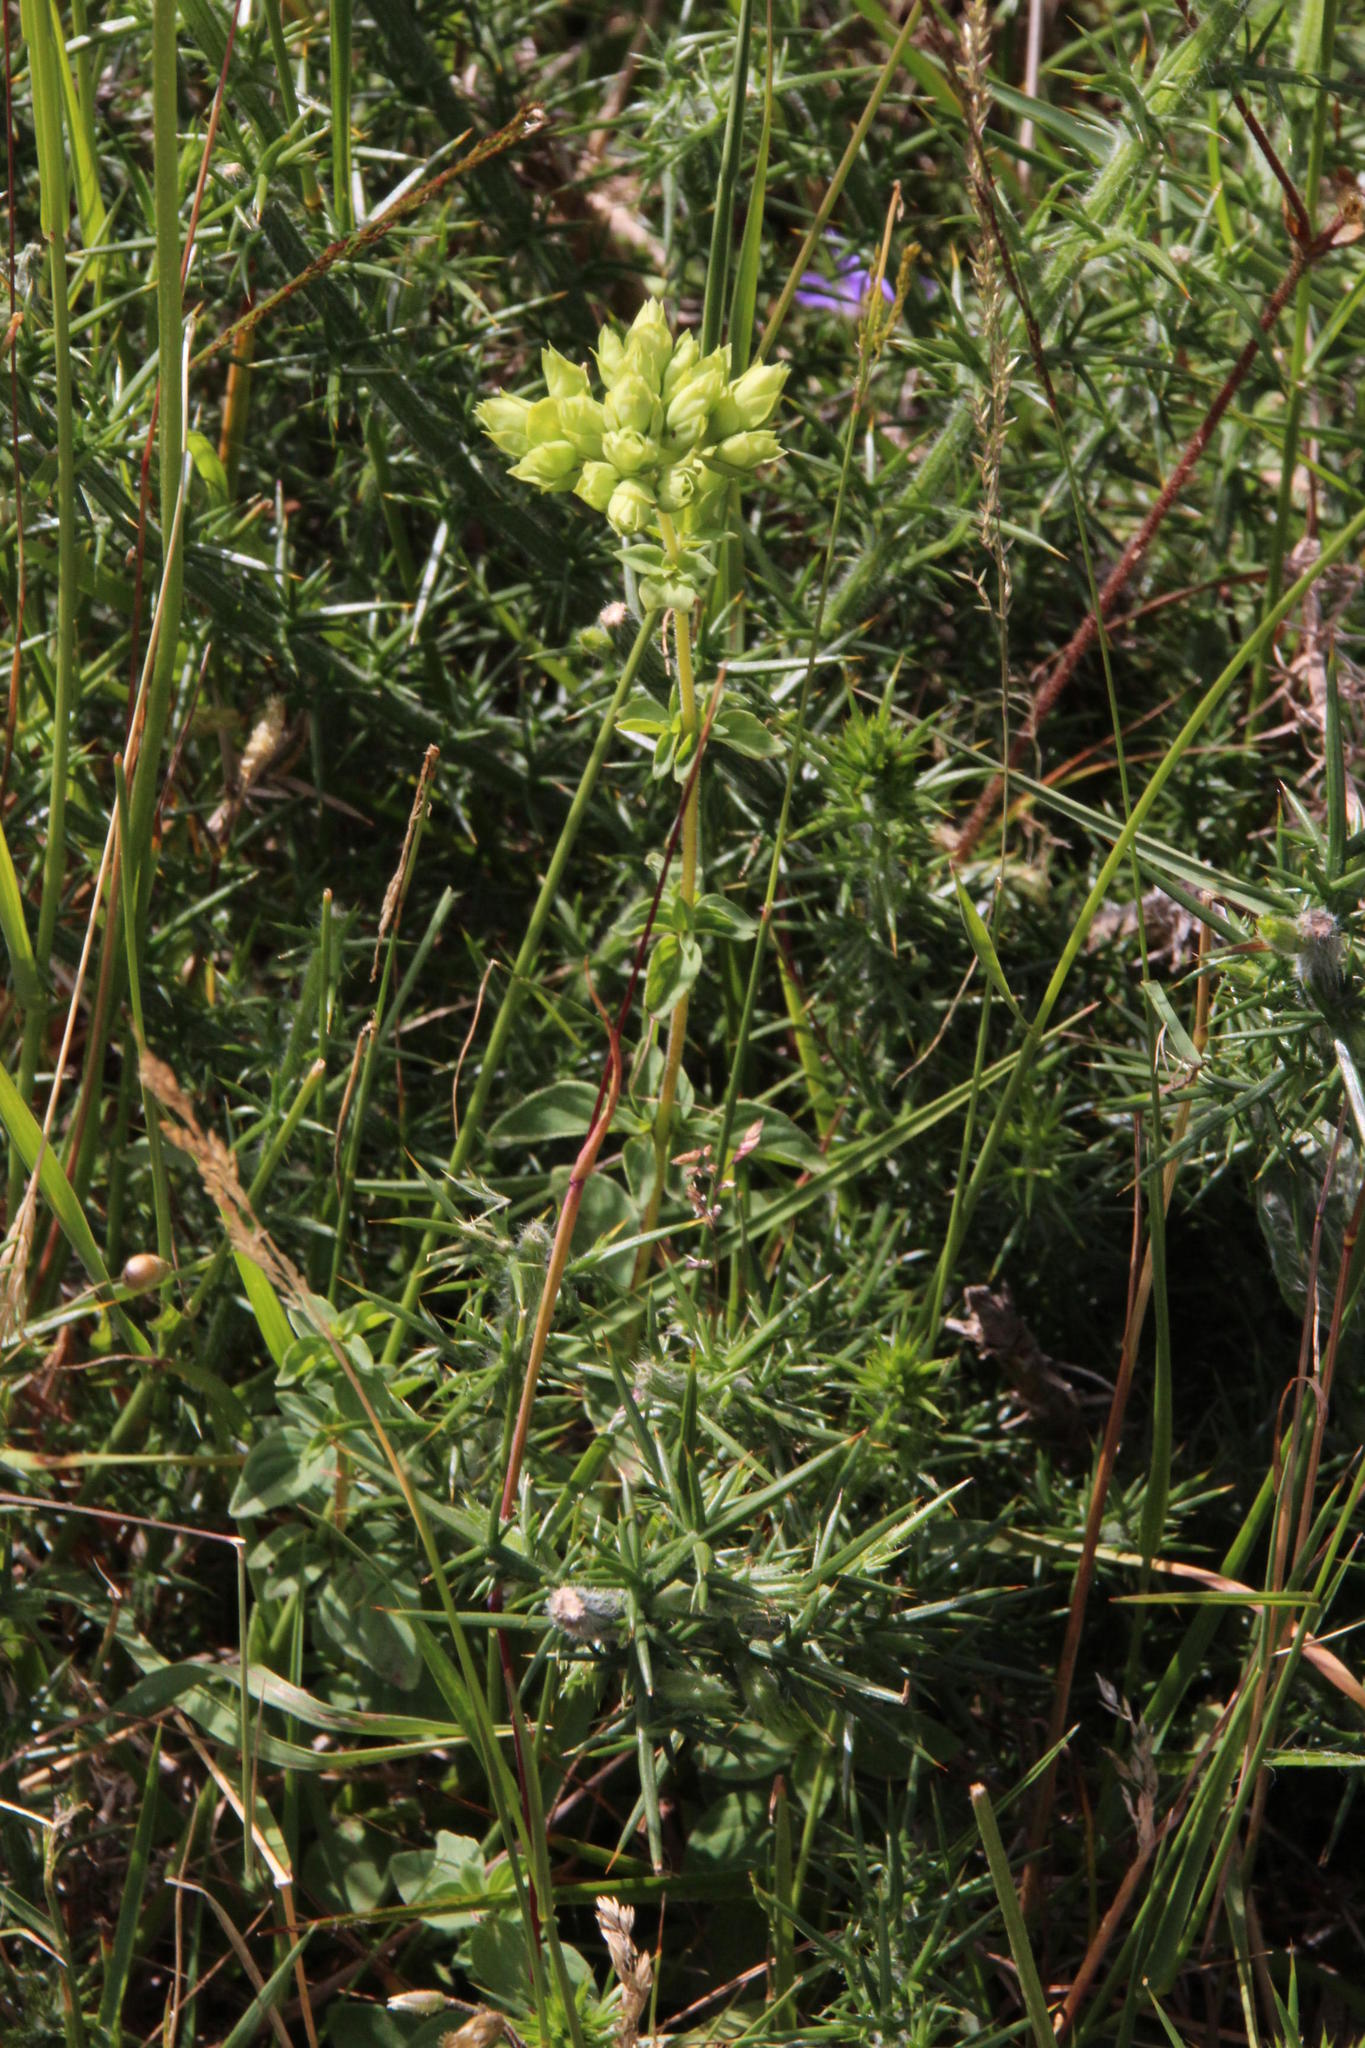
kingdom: Plantae
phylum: Tracheophyta
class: Magnoliopsida
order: Lamiales
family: Lamiaceae
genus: Origanum
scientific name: Origanum vulgare
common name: Wild marjoram
